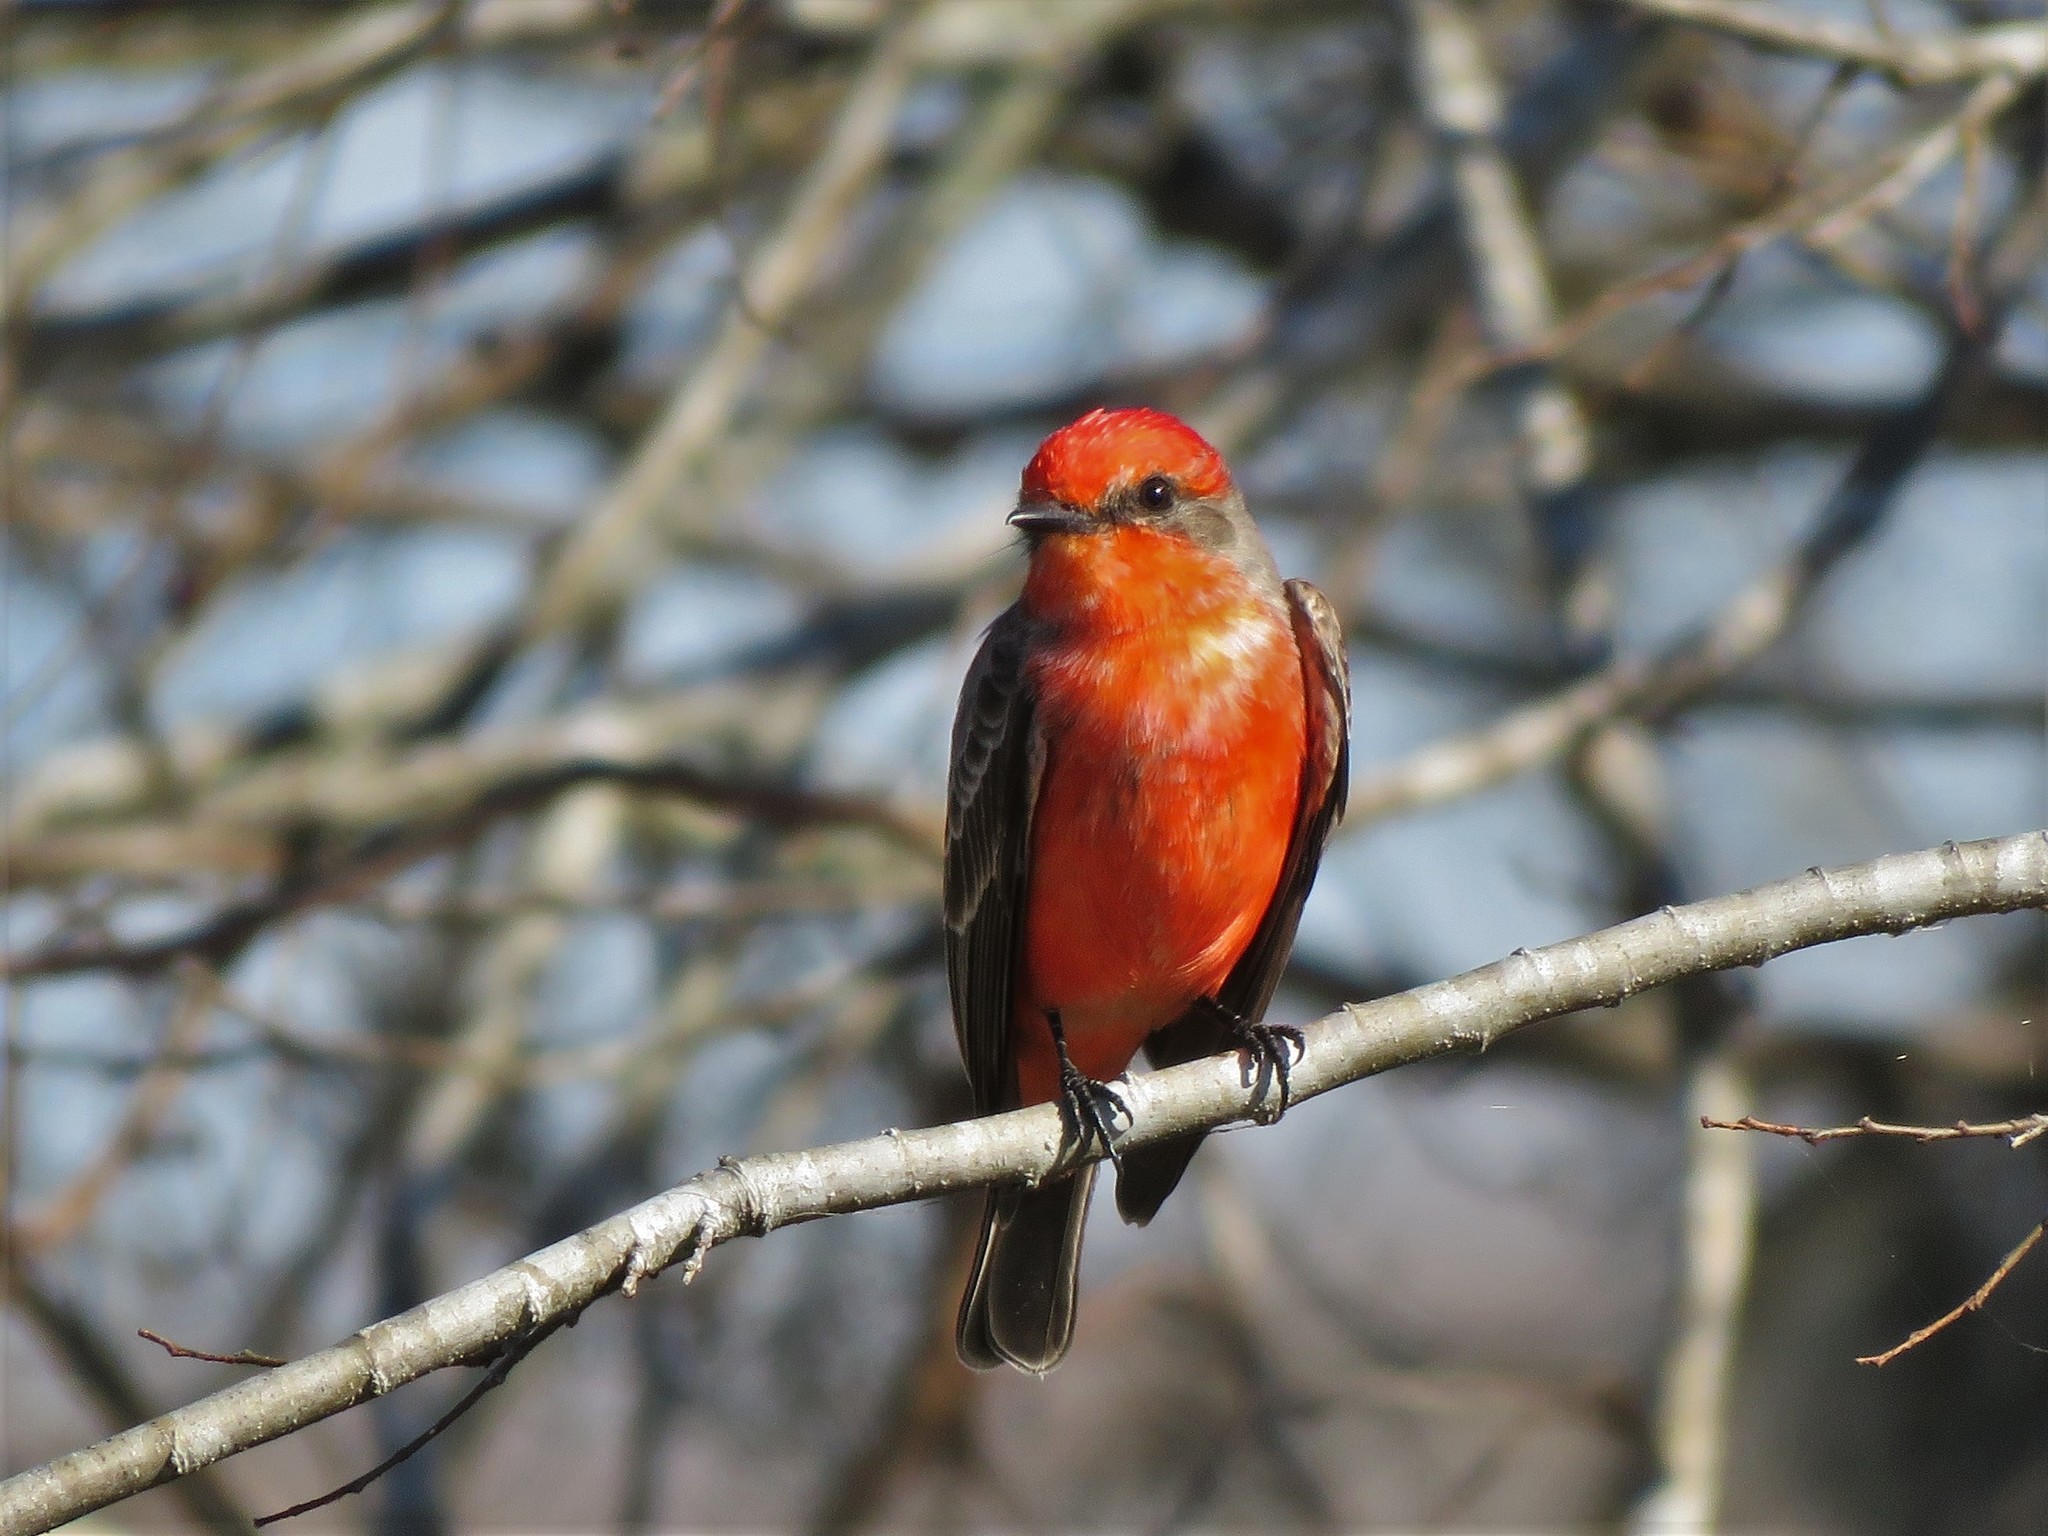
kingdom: Animalia
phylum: Chordata
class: Aves
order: Passeriformes
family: Tyrannidae
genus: Pyrocephalus
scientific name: Pyrocephalus rubinus
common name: Vermilion flycatcher
